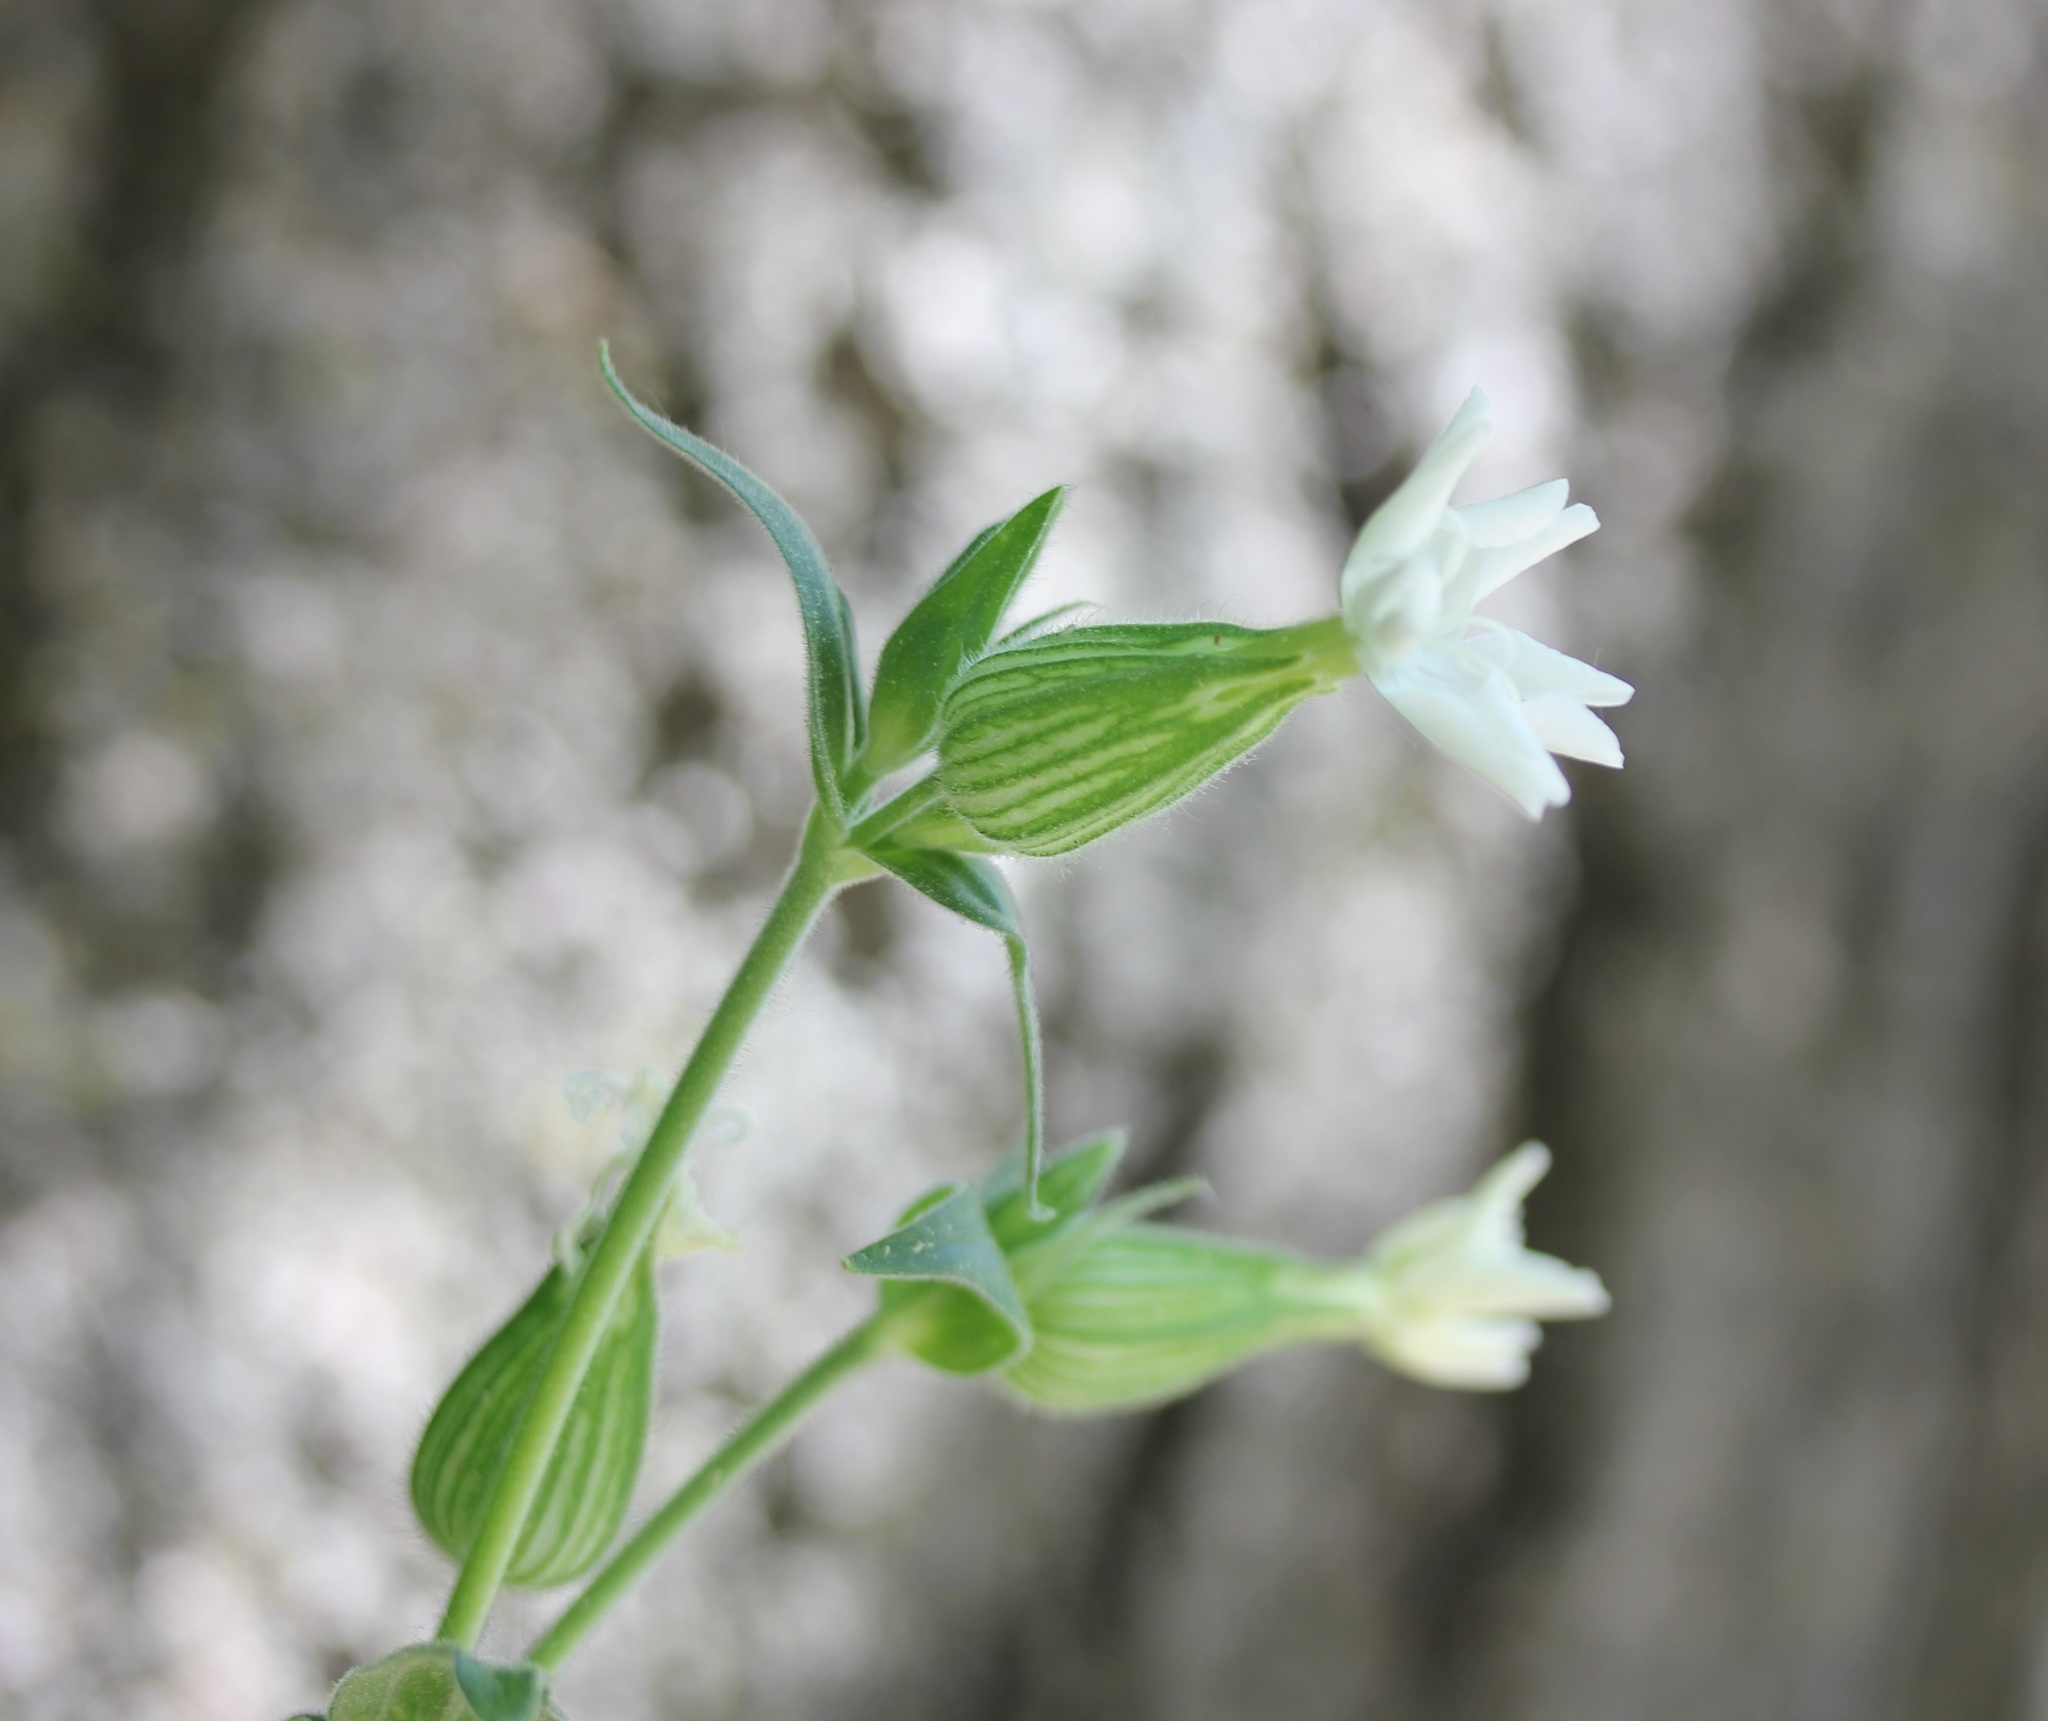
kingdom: Plantae
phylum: Tracheophyta
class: Magnoliopsida
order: Caryophyllales
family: Caryophyllaceae
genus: Silene
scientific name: Silene latifolia
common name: White campion
